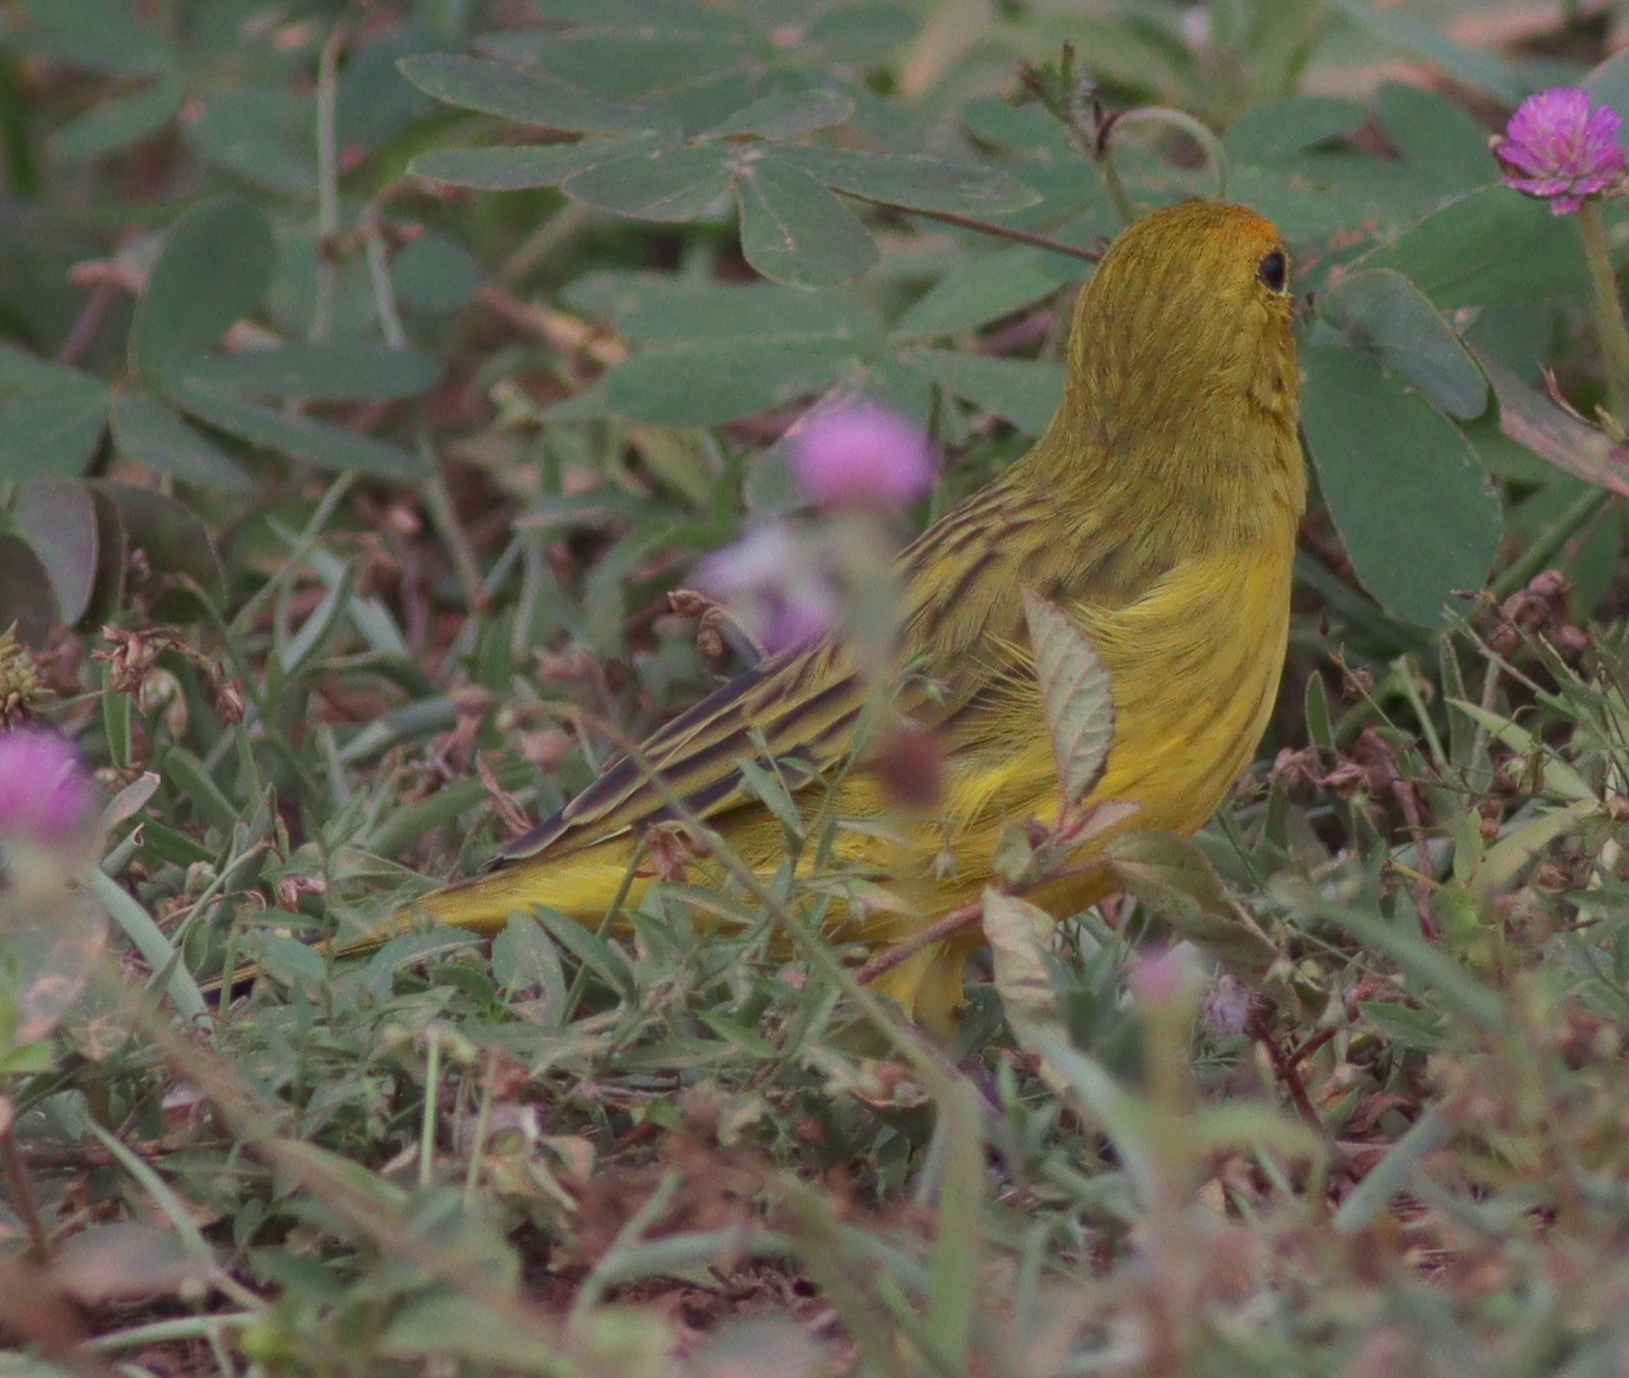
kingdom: Animalia
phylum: Chordata
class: Aves
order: Passeriformes
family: Thraupidae
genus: Sicalis
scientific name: Sicalis flaveola
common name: Saffron finch
